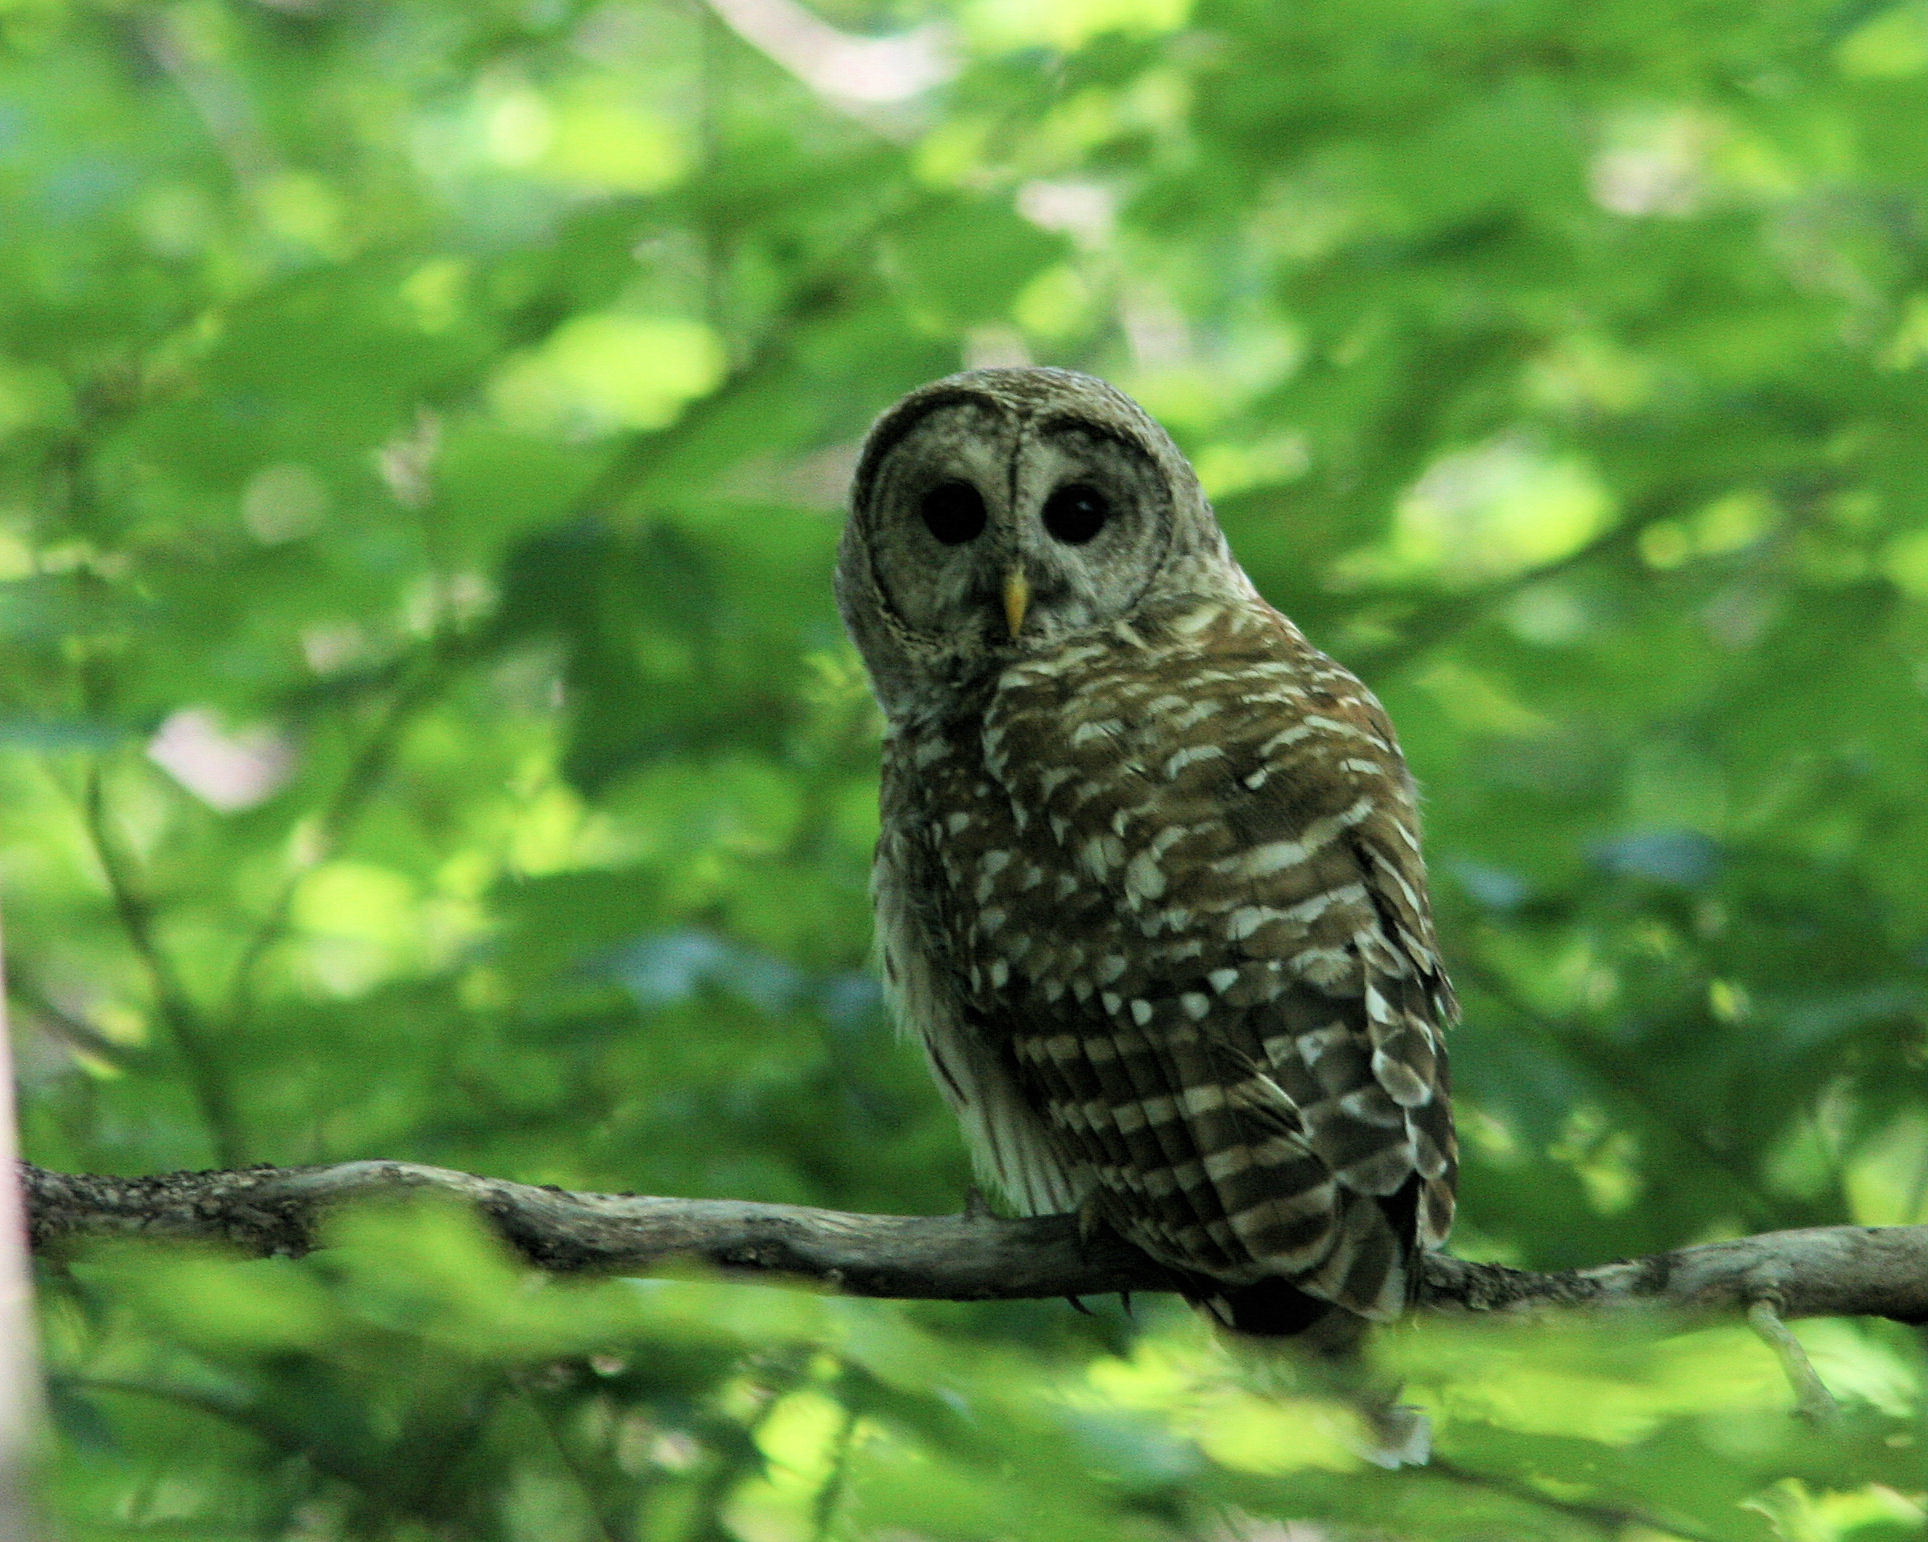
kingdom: Animalia
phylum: Chordata
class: Aves
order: Strigiformes
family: Strigidae
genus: Strix
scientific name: Strix varia
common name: Barred owl
